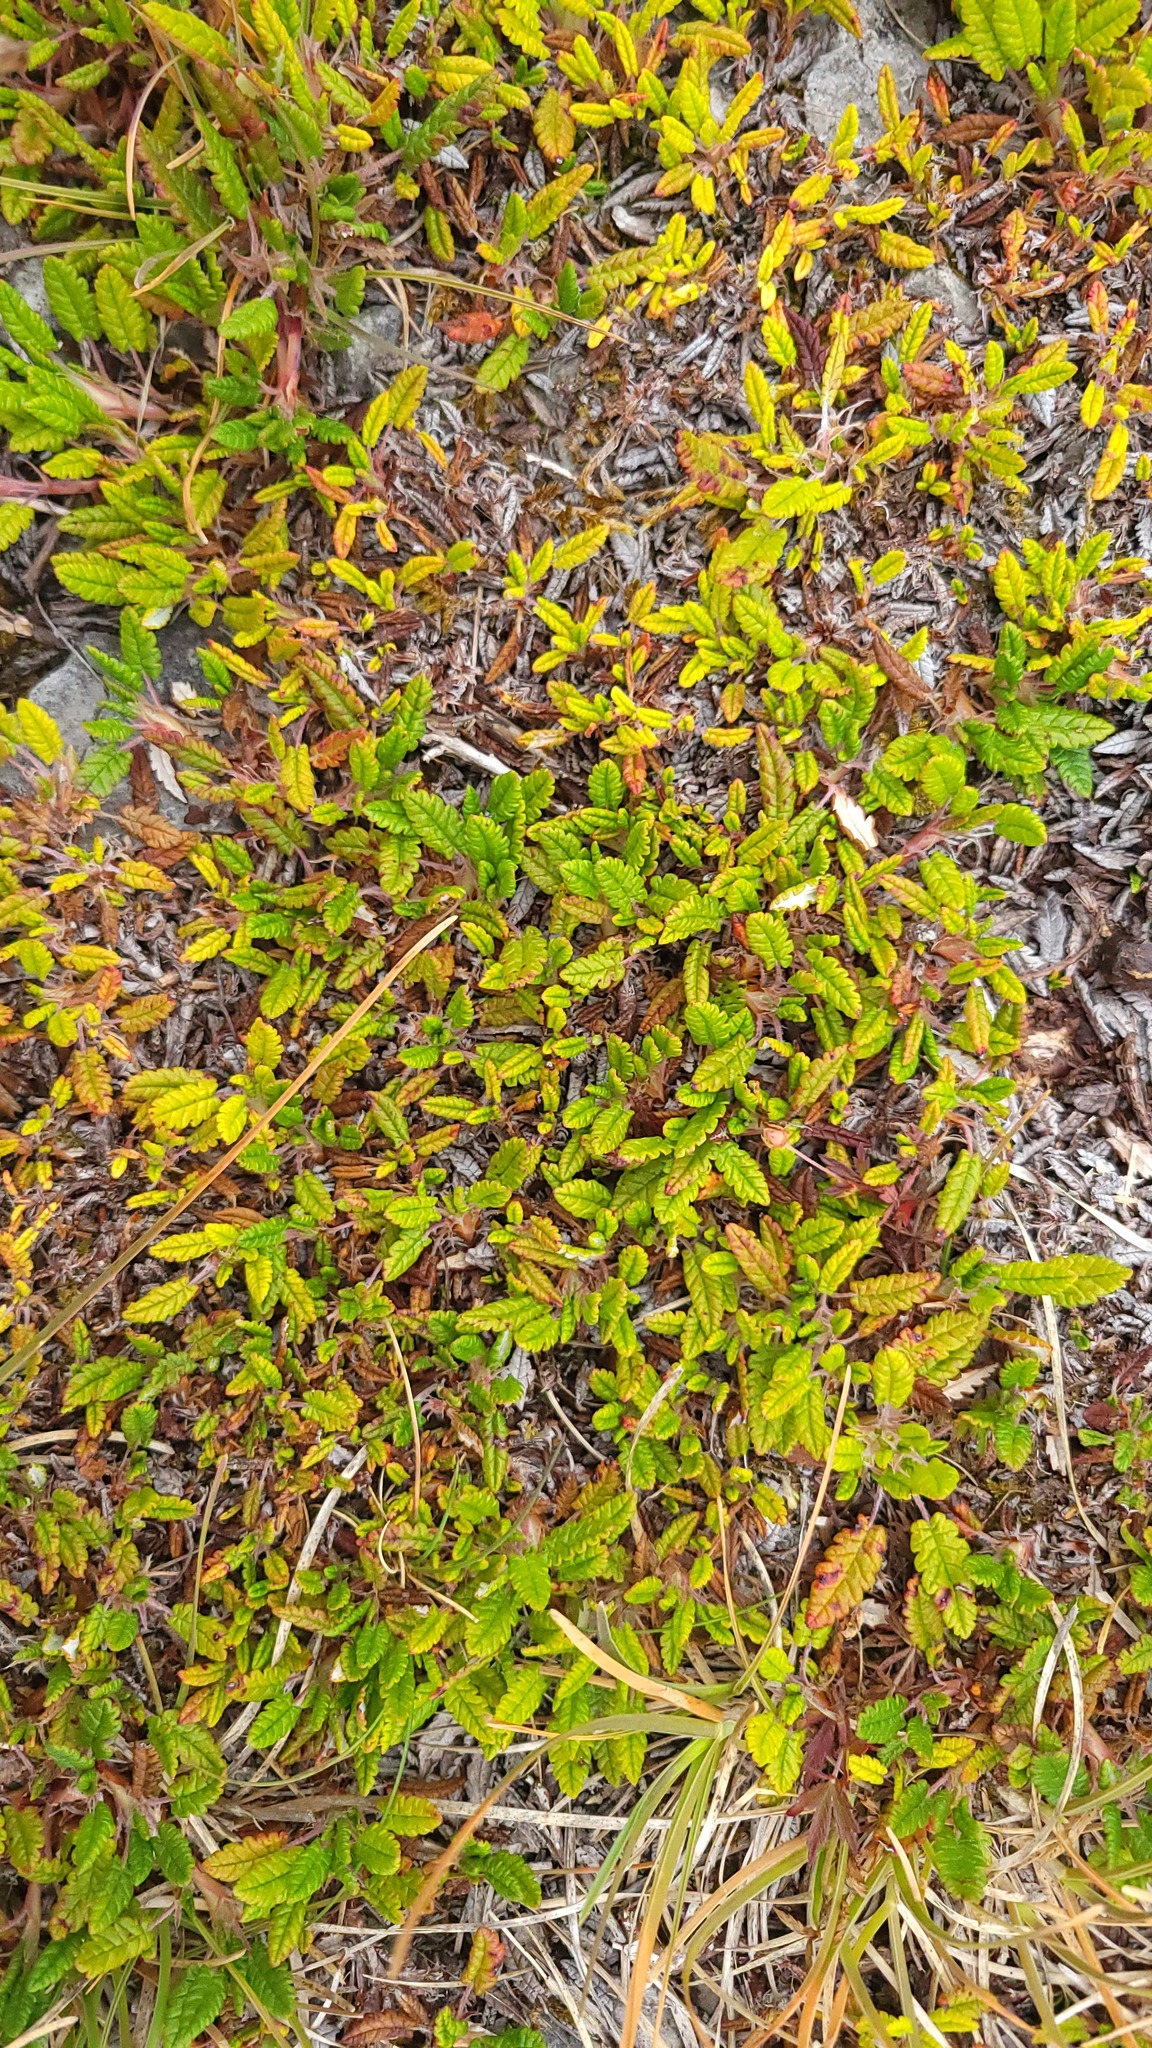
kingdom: Plantae
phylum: Tracheophyta
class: Magnoliopsida
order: Rosales
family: Rosaceae
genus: Dryas
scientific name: Dryas octopetala
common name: Eight-petal mountain-avens
